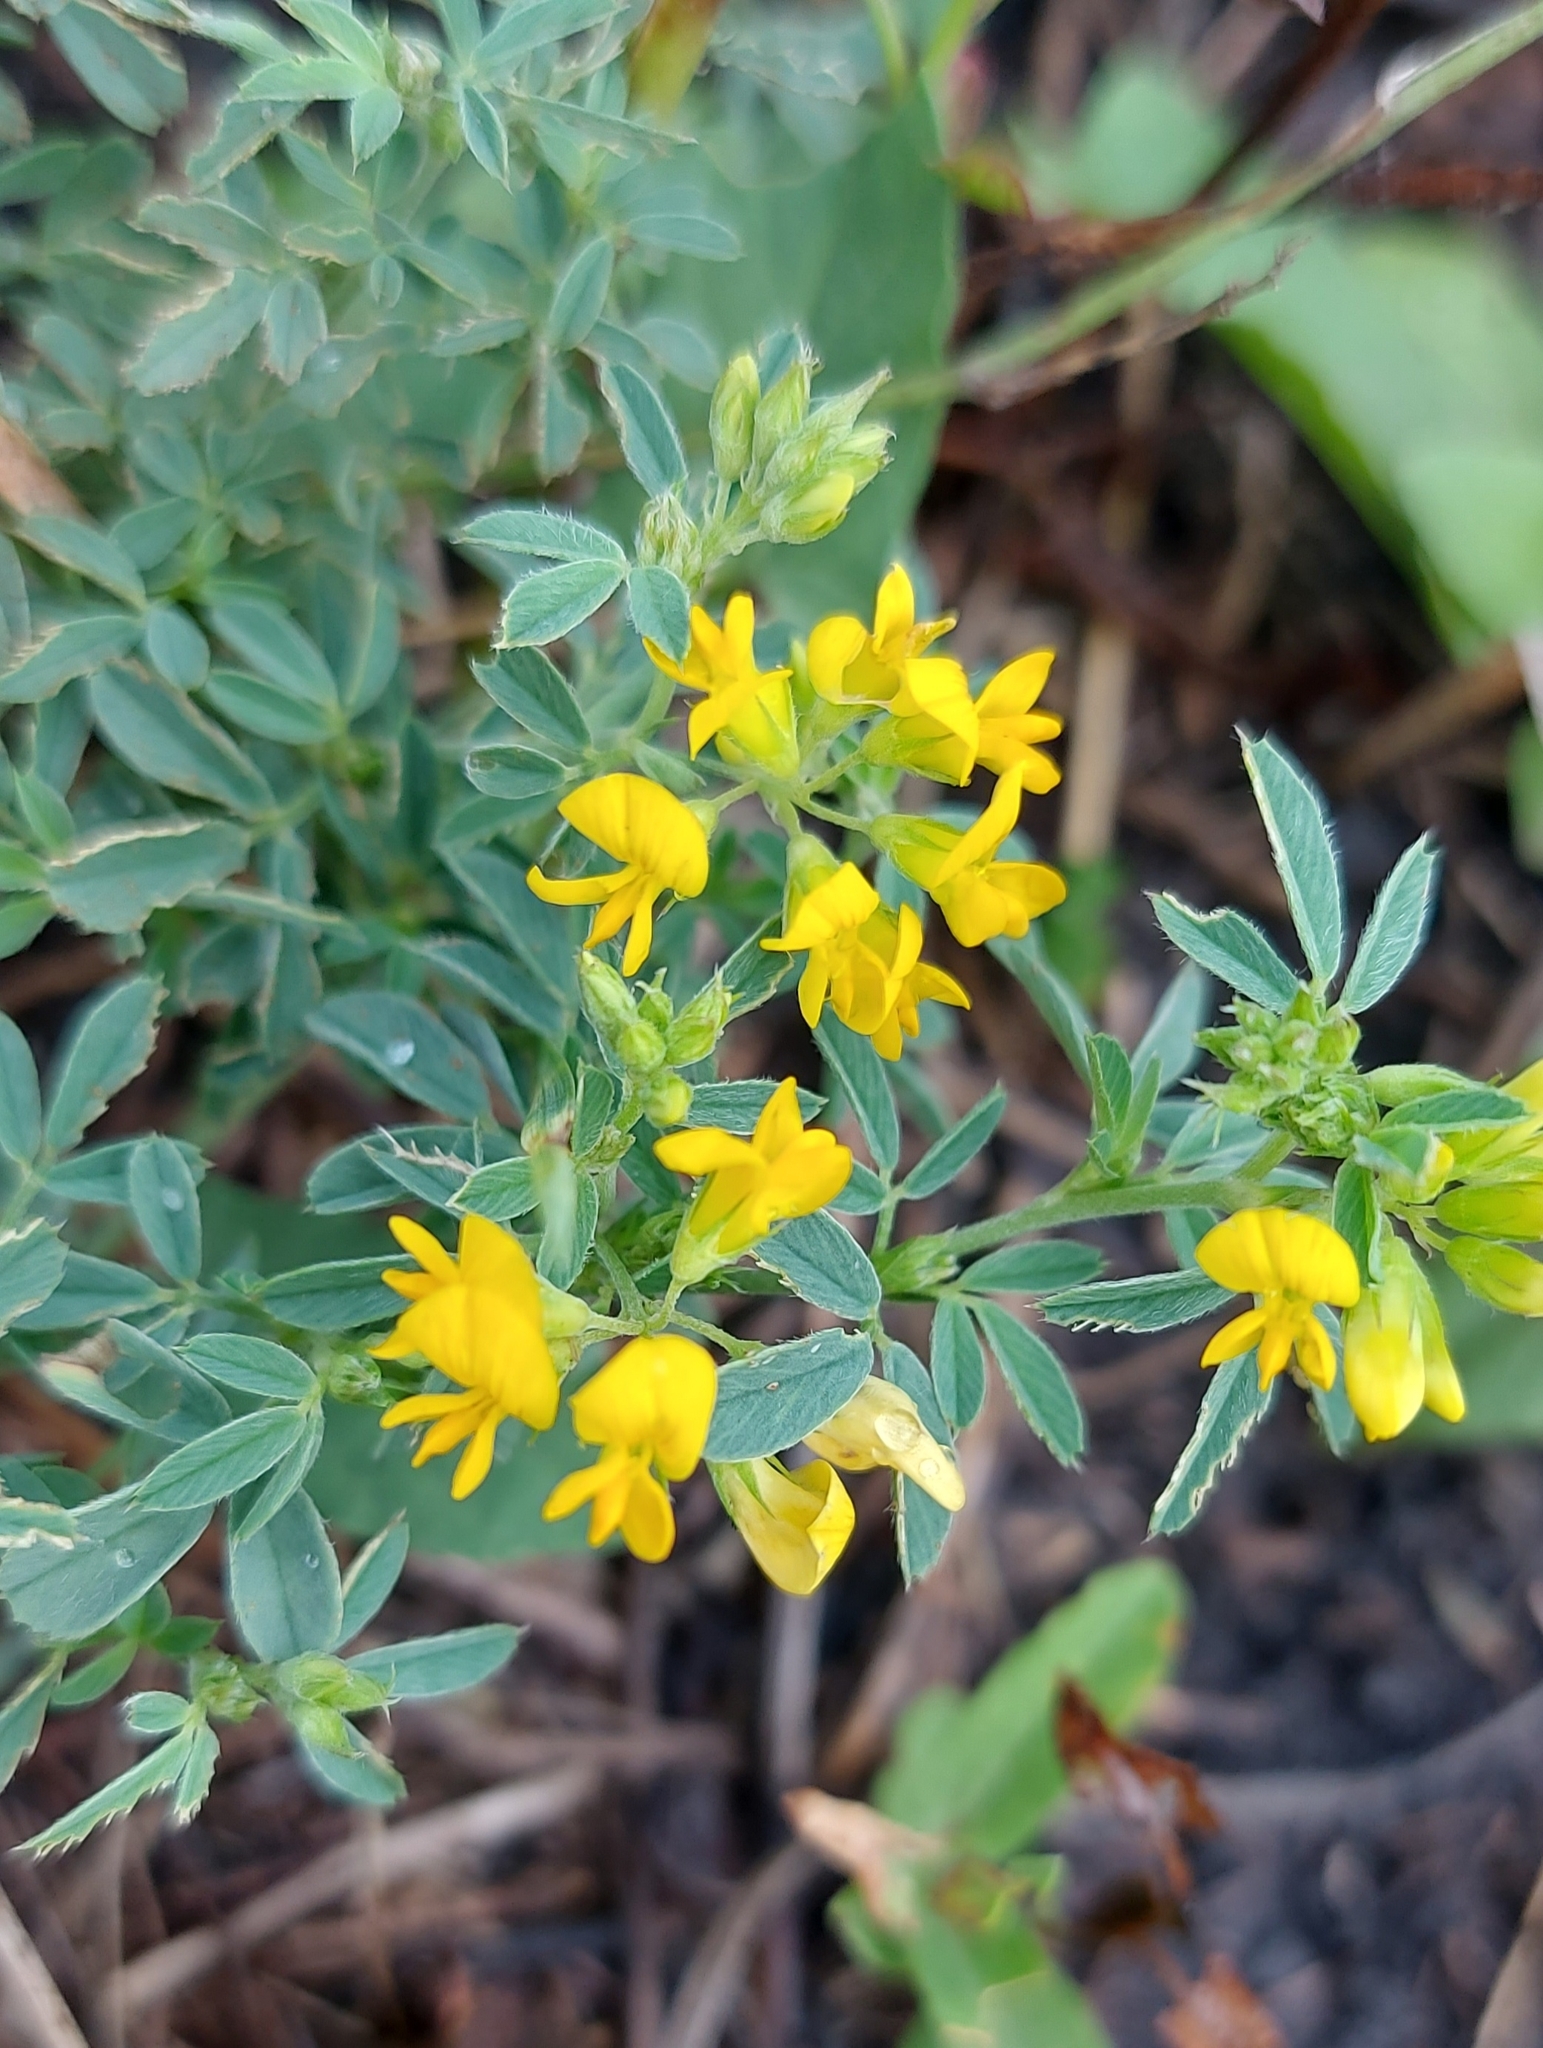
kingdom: Plantae
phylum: Tracheophyta
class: Magnoliopsida
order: Fabales
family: Fabaceae
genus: Medicago
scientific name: Medicago falcata
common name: Sickle medick
